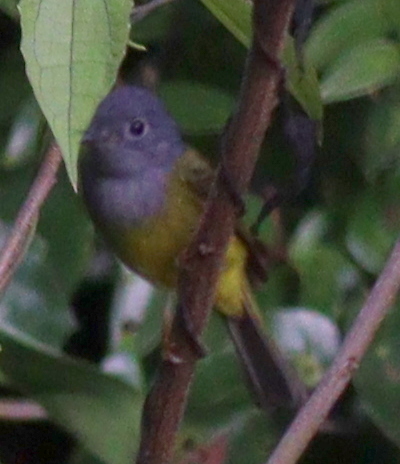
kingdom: Animalia
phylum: Chordata
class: Aves
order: Passeriformes
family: Stenostiridae
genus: Culicicapa
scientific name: Culicicapa ceylonensis
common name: Grey-headed canary-flycatcher
